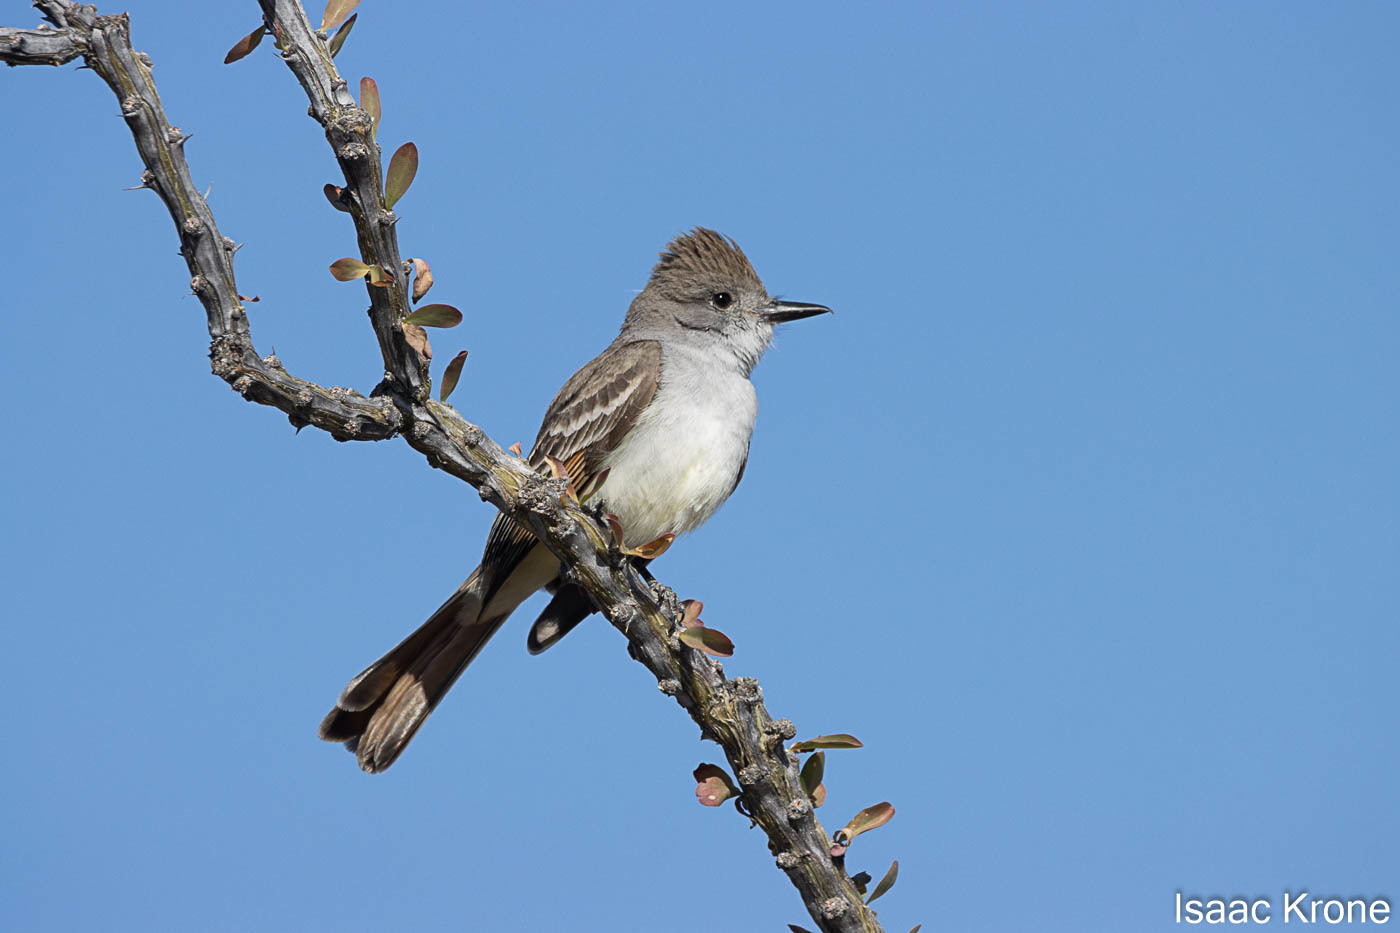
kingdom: Animalia
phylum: Chordata
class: Aves
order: Passeriformes
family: Tyrannidae
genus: Myiarchus
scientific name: Myiarchus cinerascens
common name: Ash-throated flycatcher
